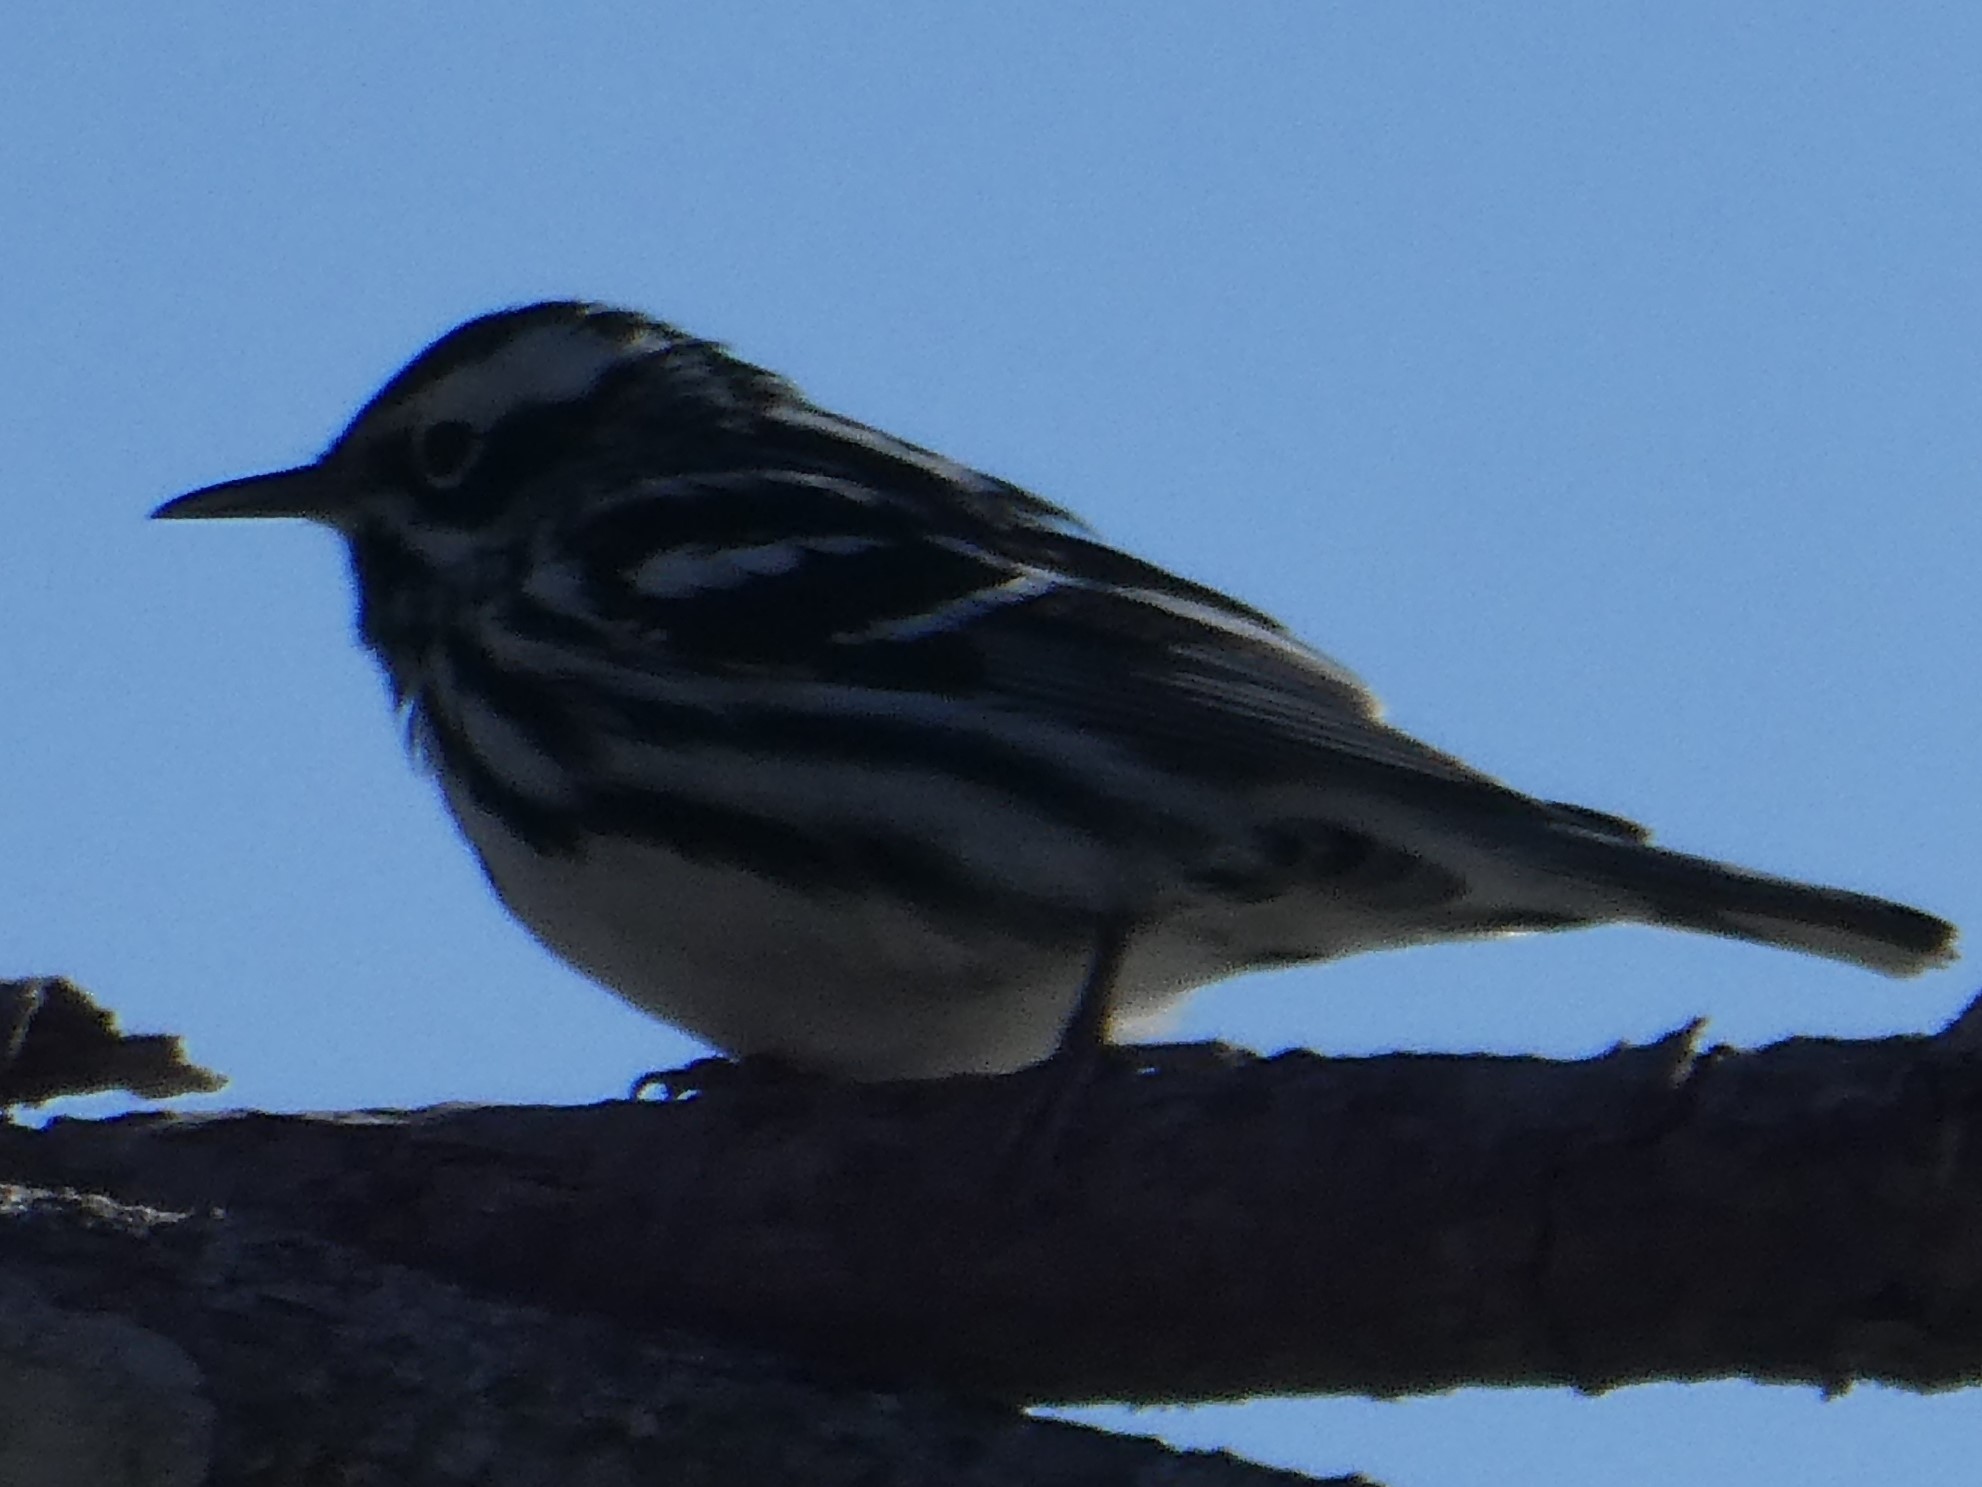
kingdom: Animalia
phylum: Chordata
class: Aves
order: Passeriformes
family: Parulidae
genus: Mniotilta
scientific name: Mniotilta varia
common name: Black-and-white warbler
